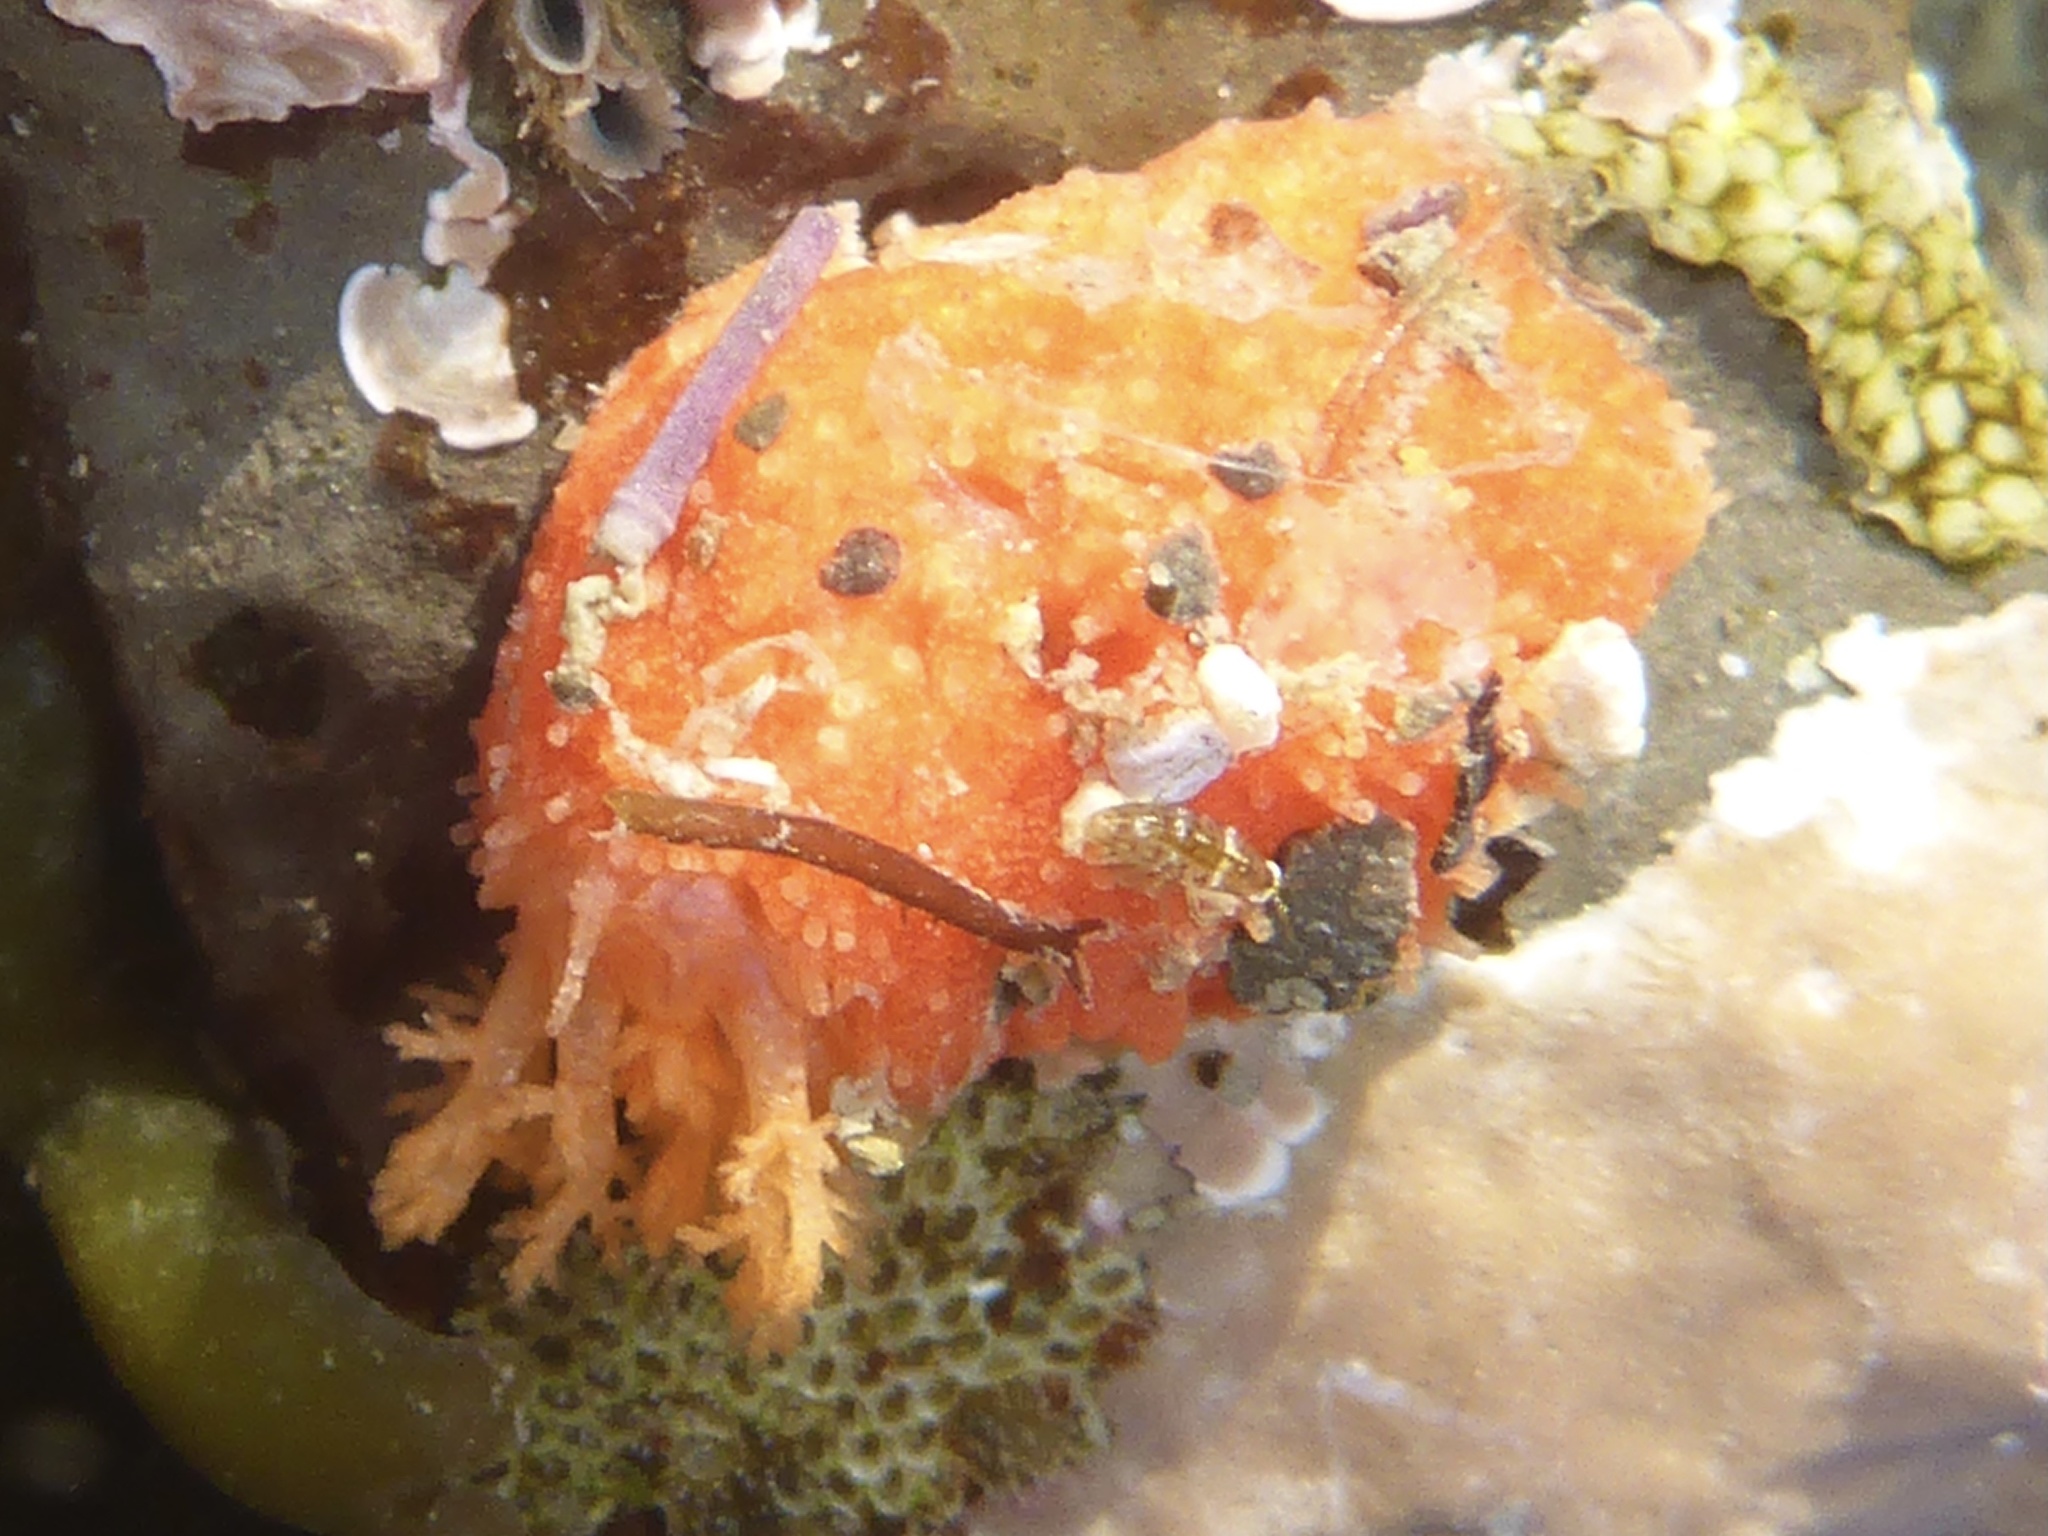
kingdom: Animalia
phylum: Echinodermata
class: Holothuroidea
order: Dendrochirotida
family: Psolidae
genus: Lissothuria
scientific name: Lissothuria nutriens
